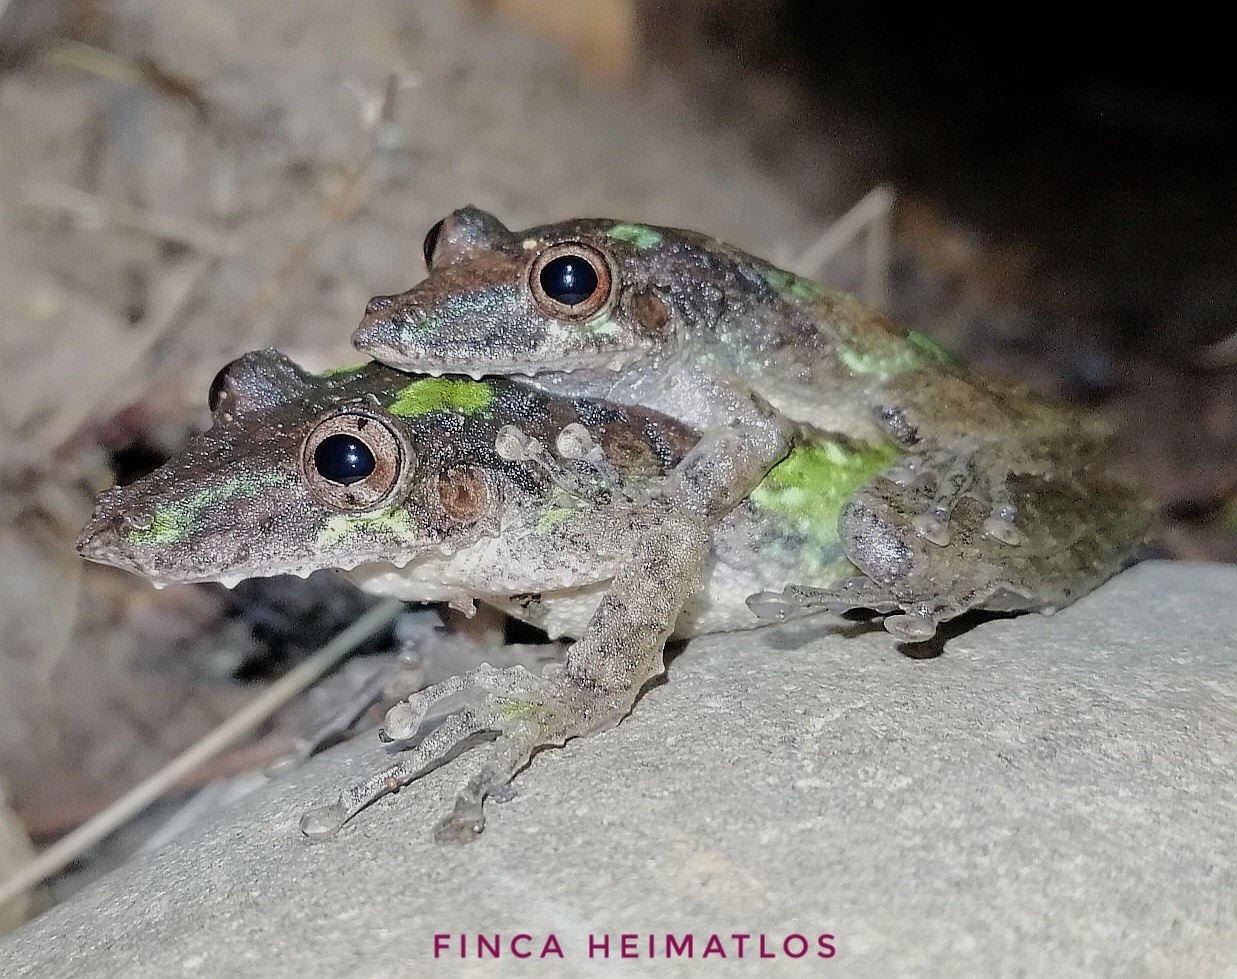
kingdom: Animalia
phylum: Chordata
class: Amphibia
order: Anura
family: Hylidae
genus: Scinax
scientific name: Scinax garbei
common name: Eirunepe snouted treefrog
